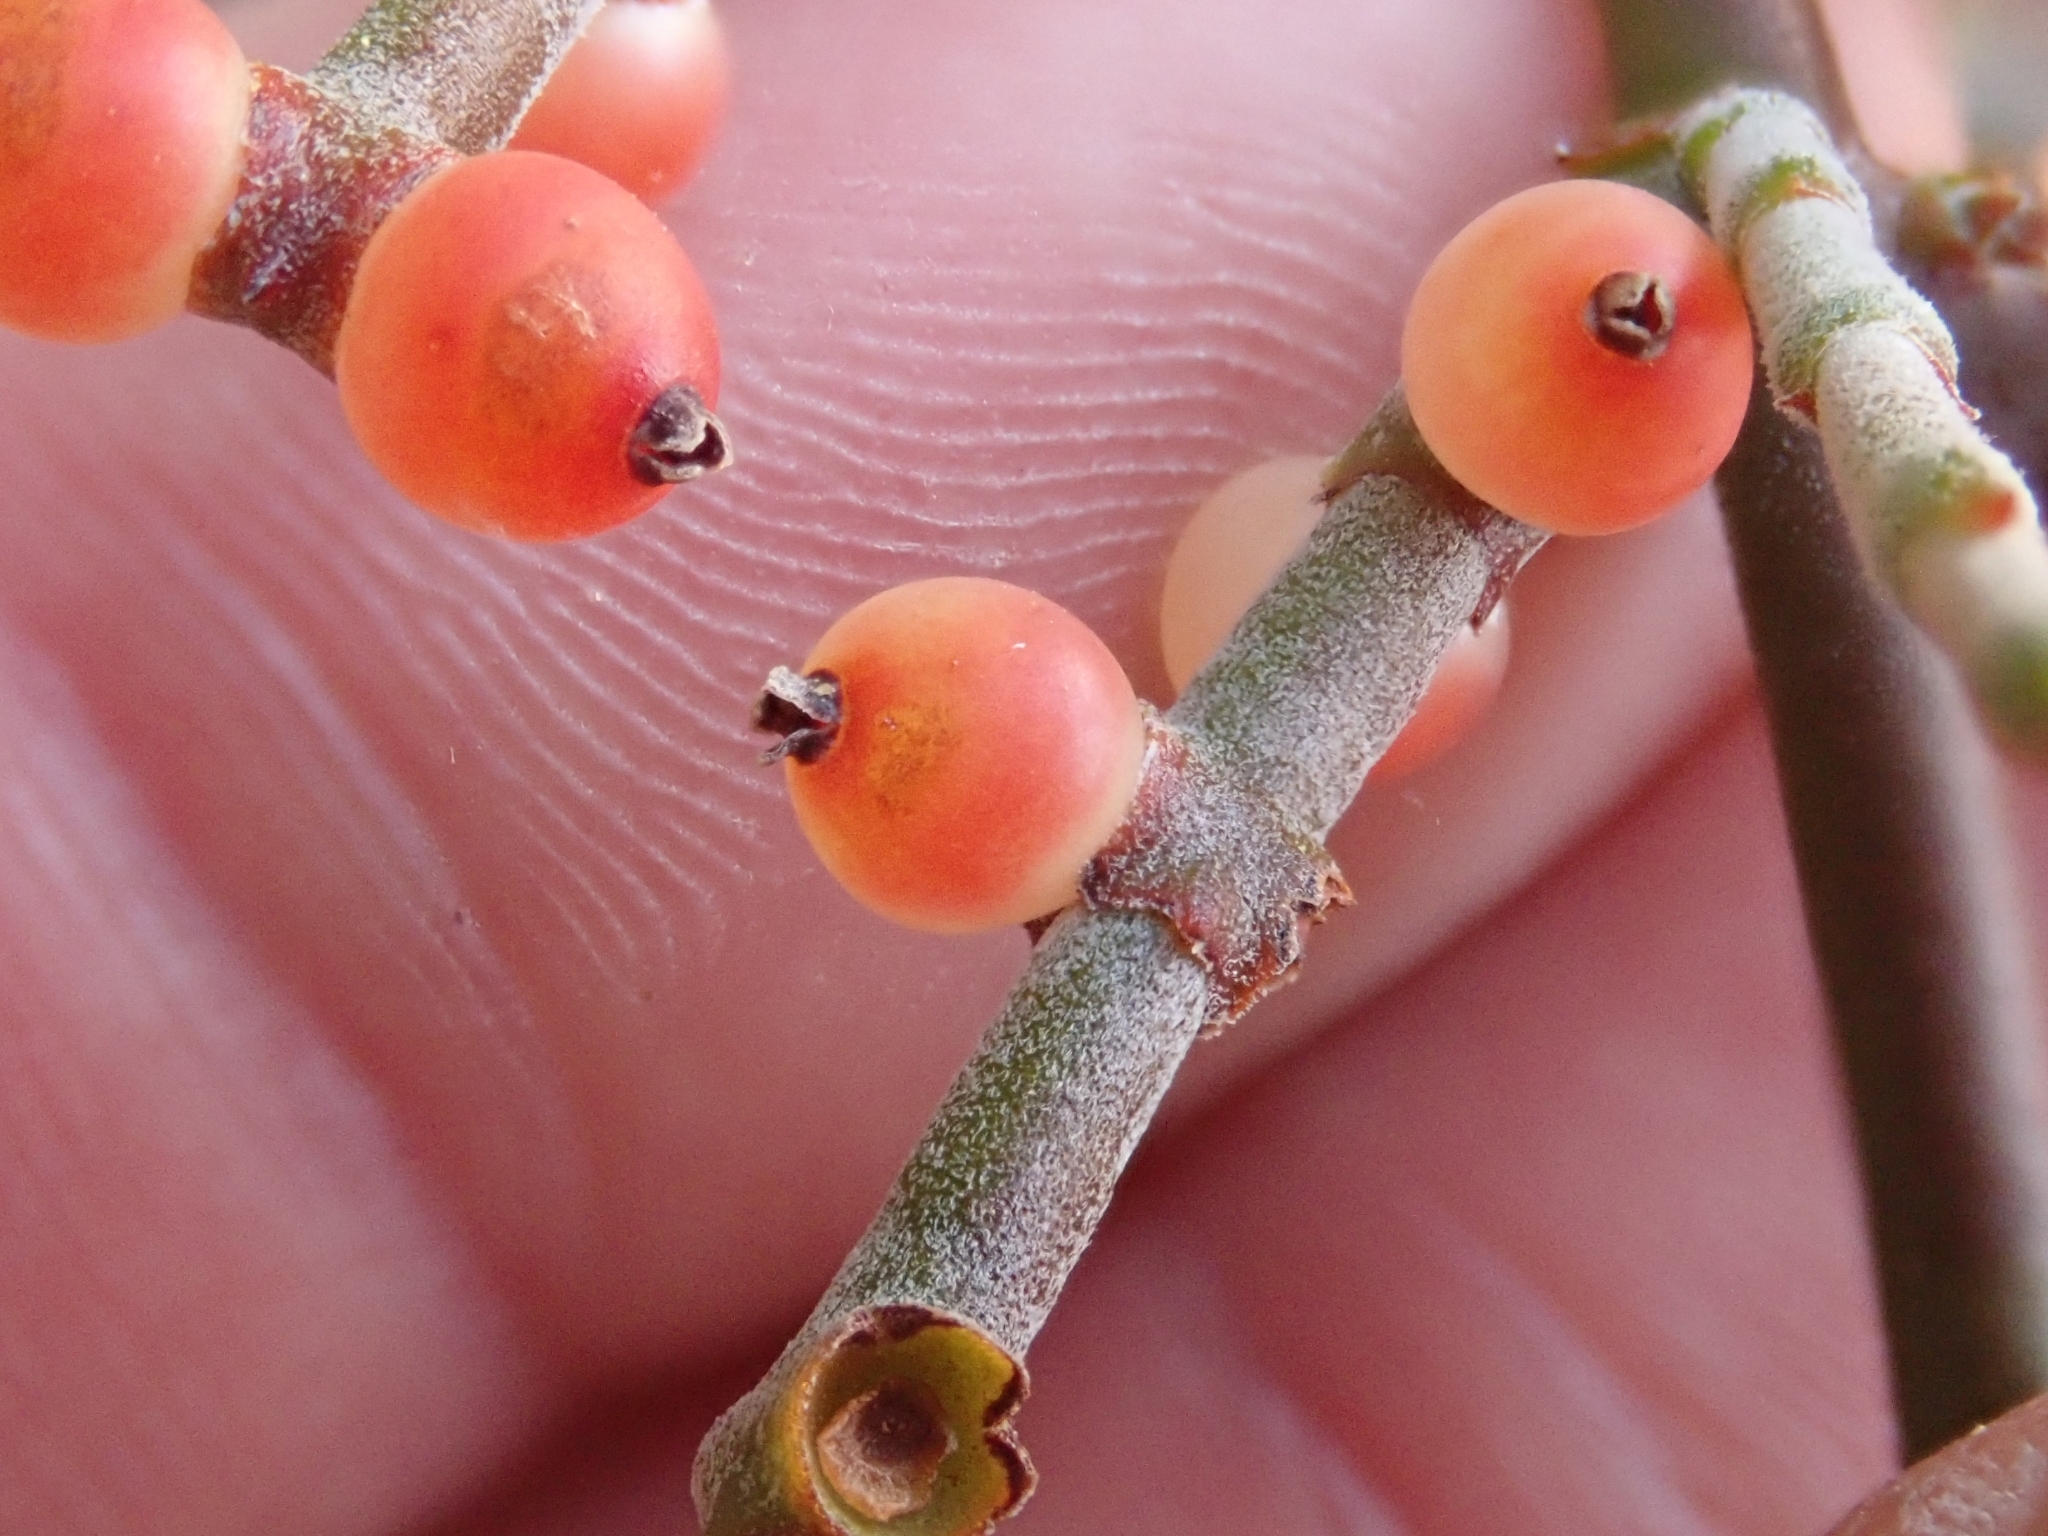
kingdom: Plantae
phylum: Tracheophyta
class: Magnoliopsida
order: Santalales
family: Viscaceae
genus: Phoradendron
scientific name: Phoradendron californicum
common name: Acacia mistletoe
